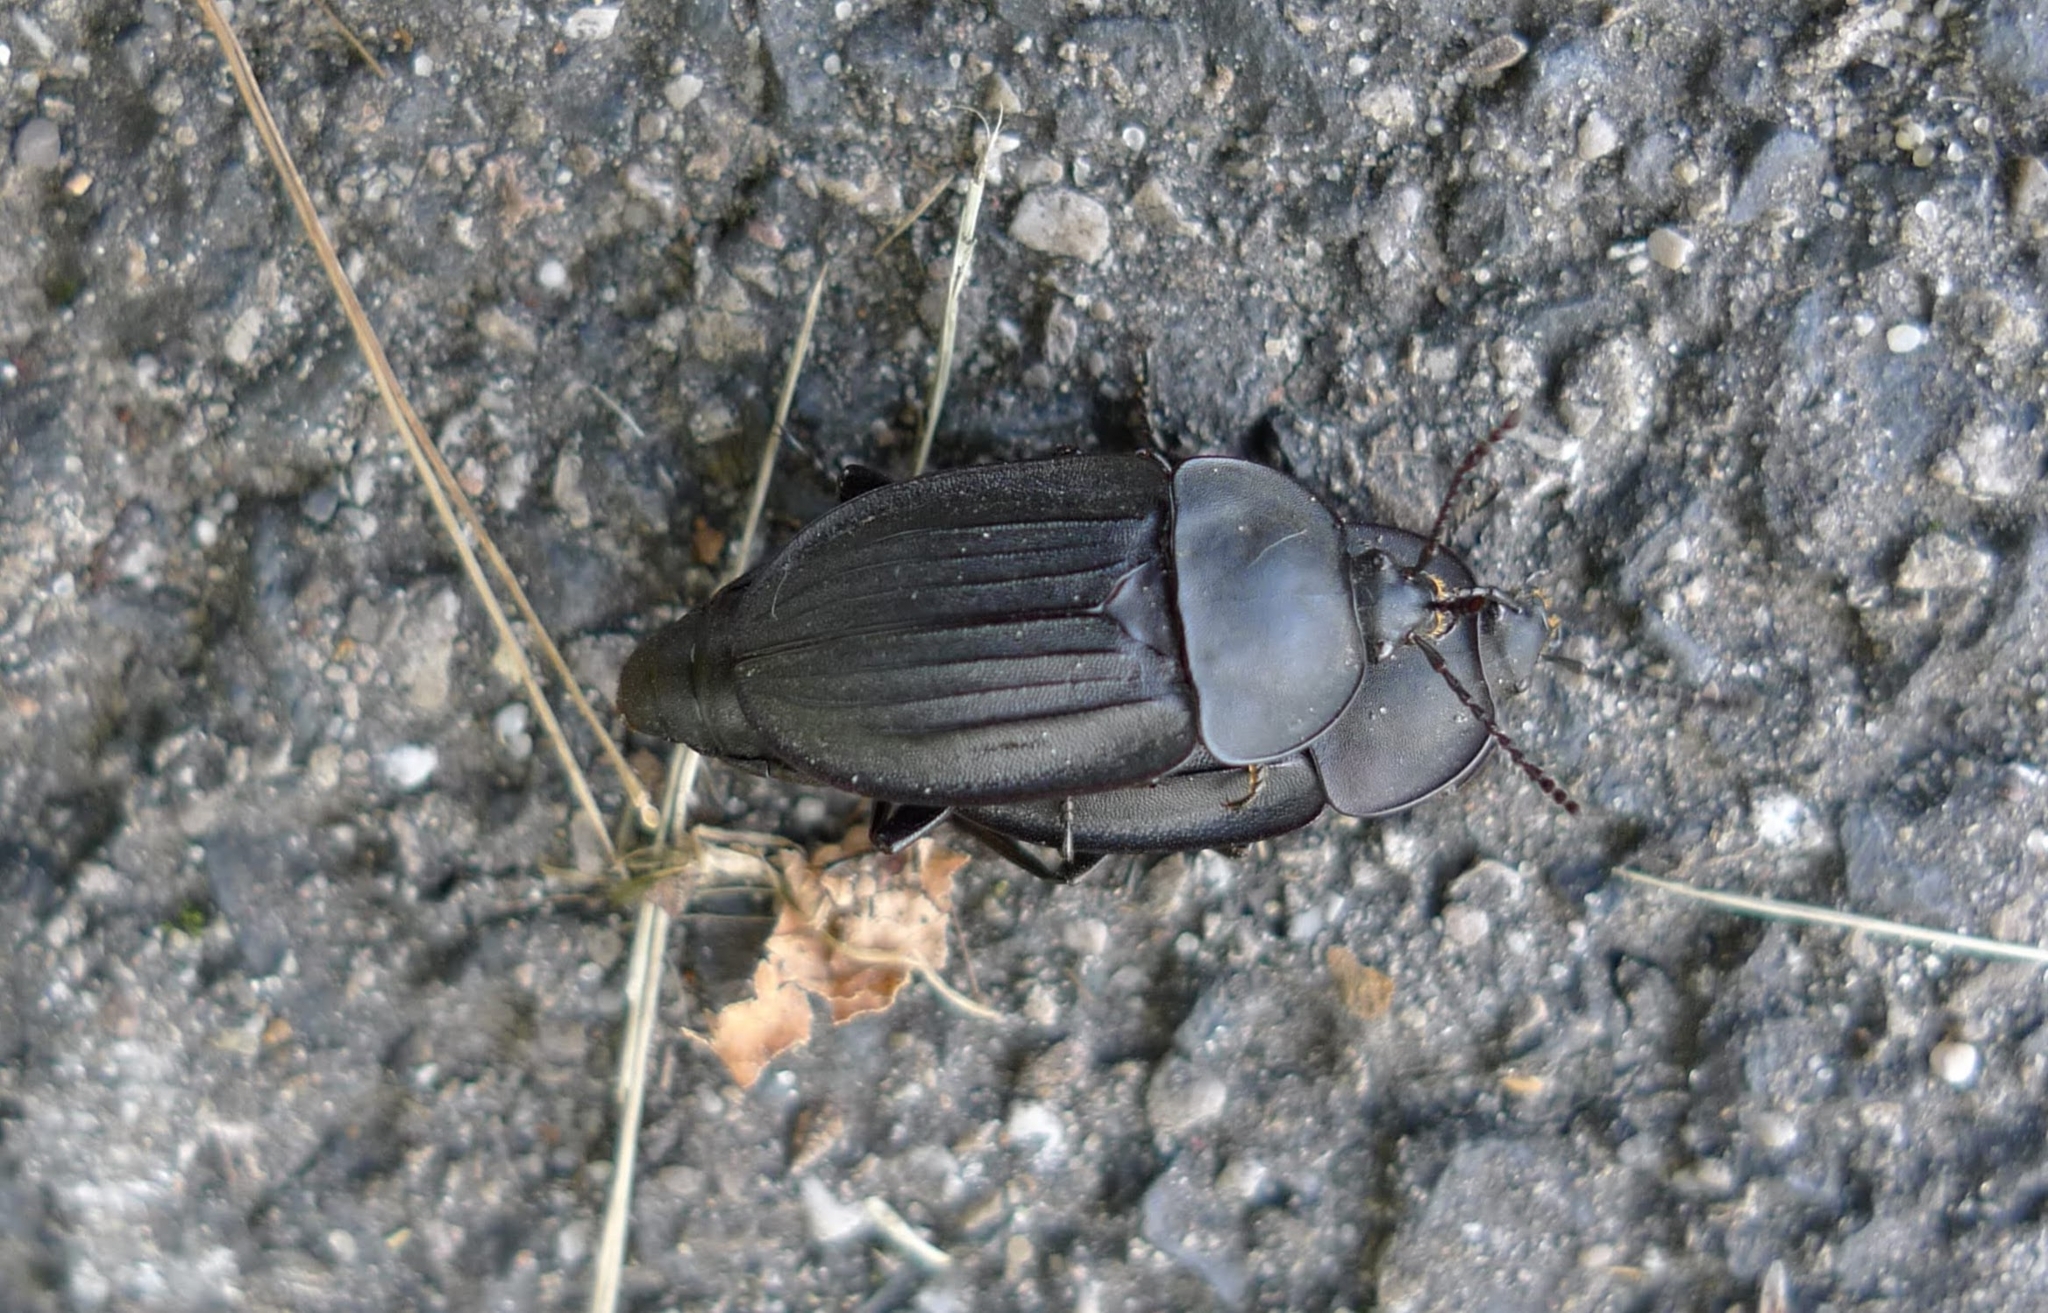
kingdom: Animalia
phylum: Arthropoda
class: Insecta
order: Coleoptera
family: Staphylinidae
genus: Silpha
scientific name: Silpha carinata
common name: Silphid beetle
